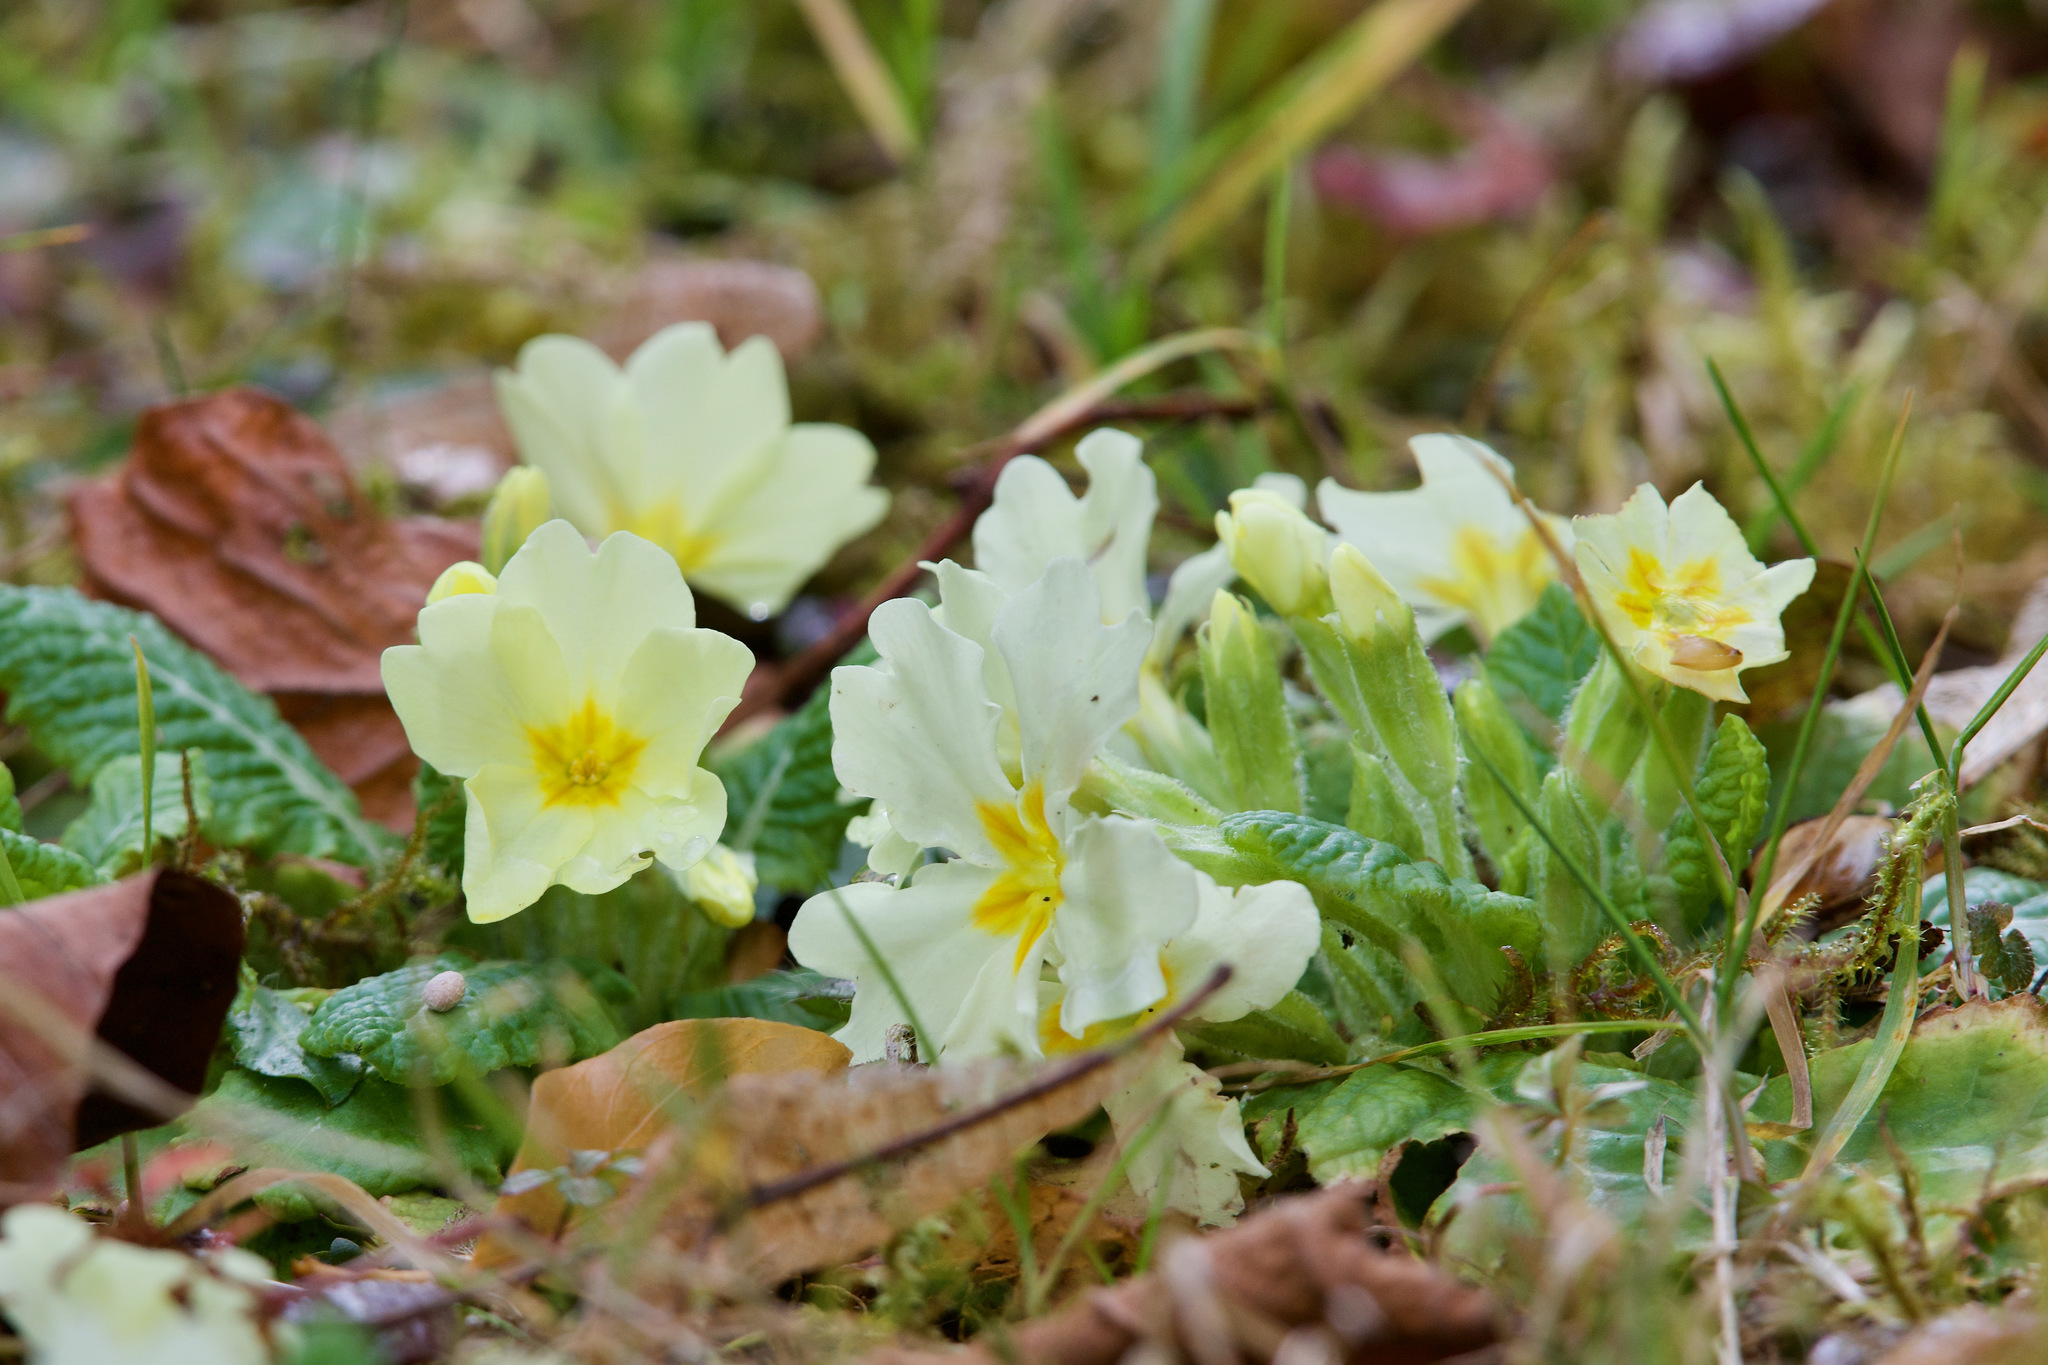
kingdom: Plantae
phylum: Tracheophyta
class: Magnoliopsida
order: Ericales
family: Primulaceae
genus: Primula
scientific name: Primula vulgaris
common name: Primrose
